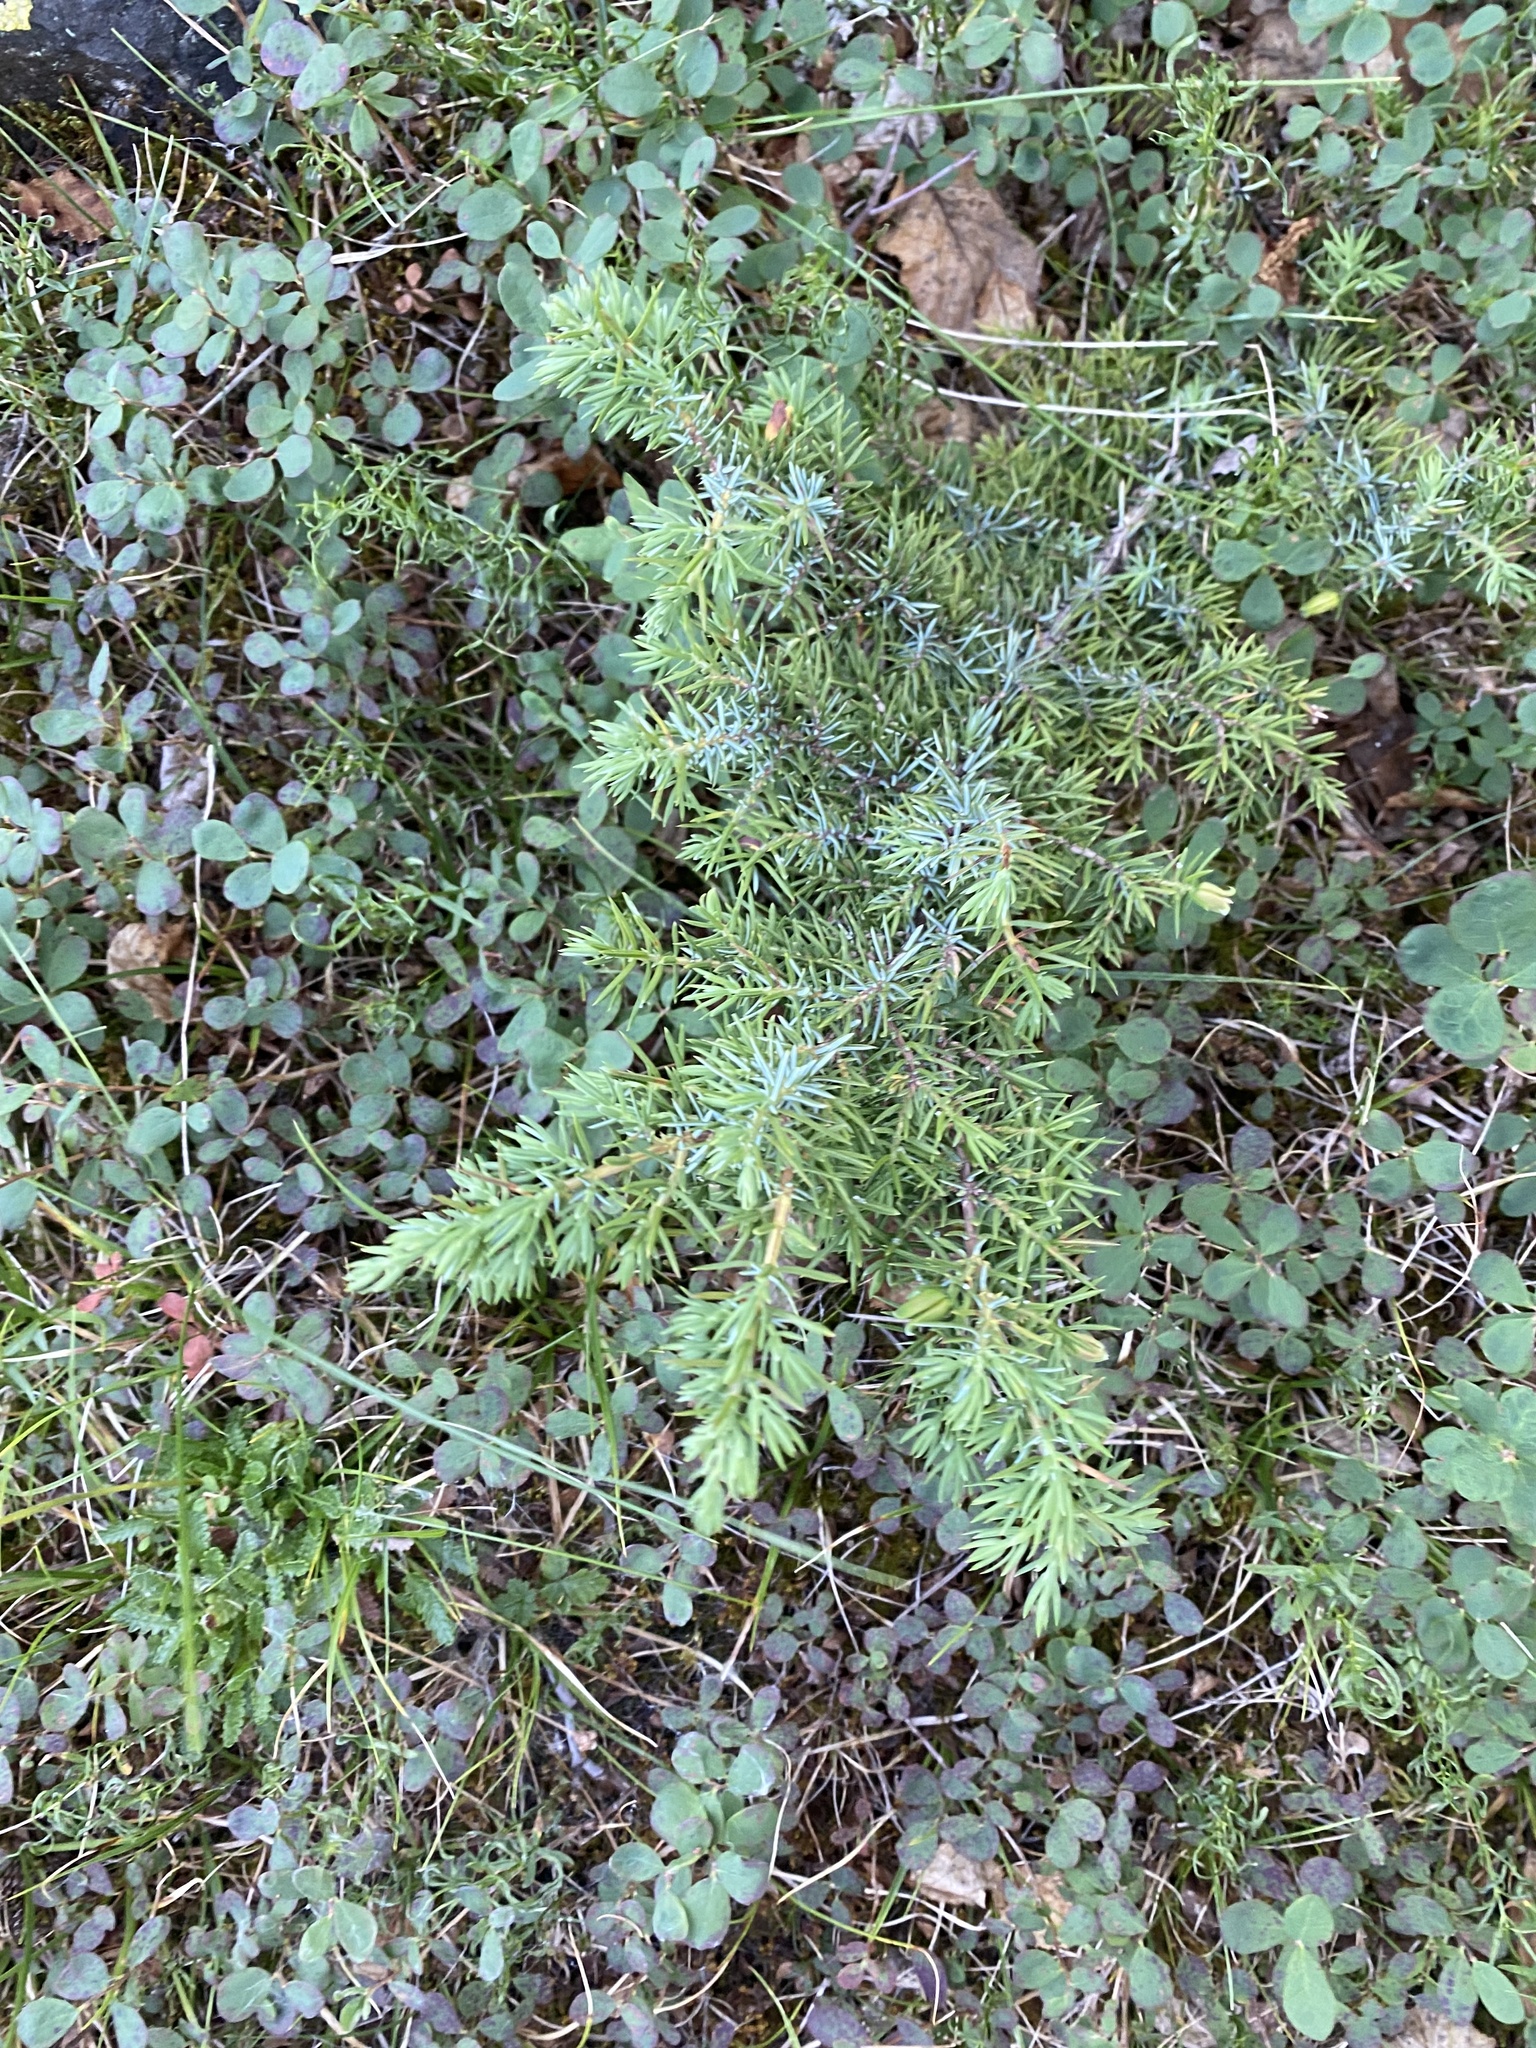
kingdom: Plantae
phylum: Tracheophyta
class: Pinopsida
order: Pinales
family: Cupressaceae
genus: Juniperus
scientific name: Juniperus communis
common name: Common juniper
